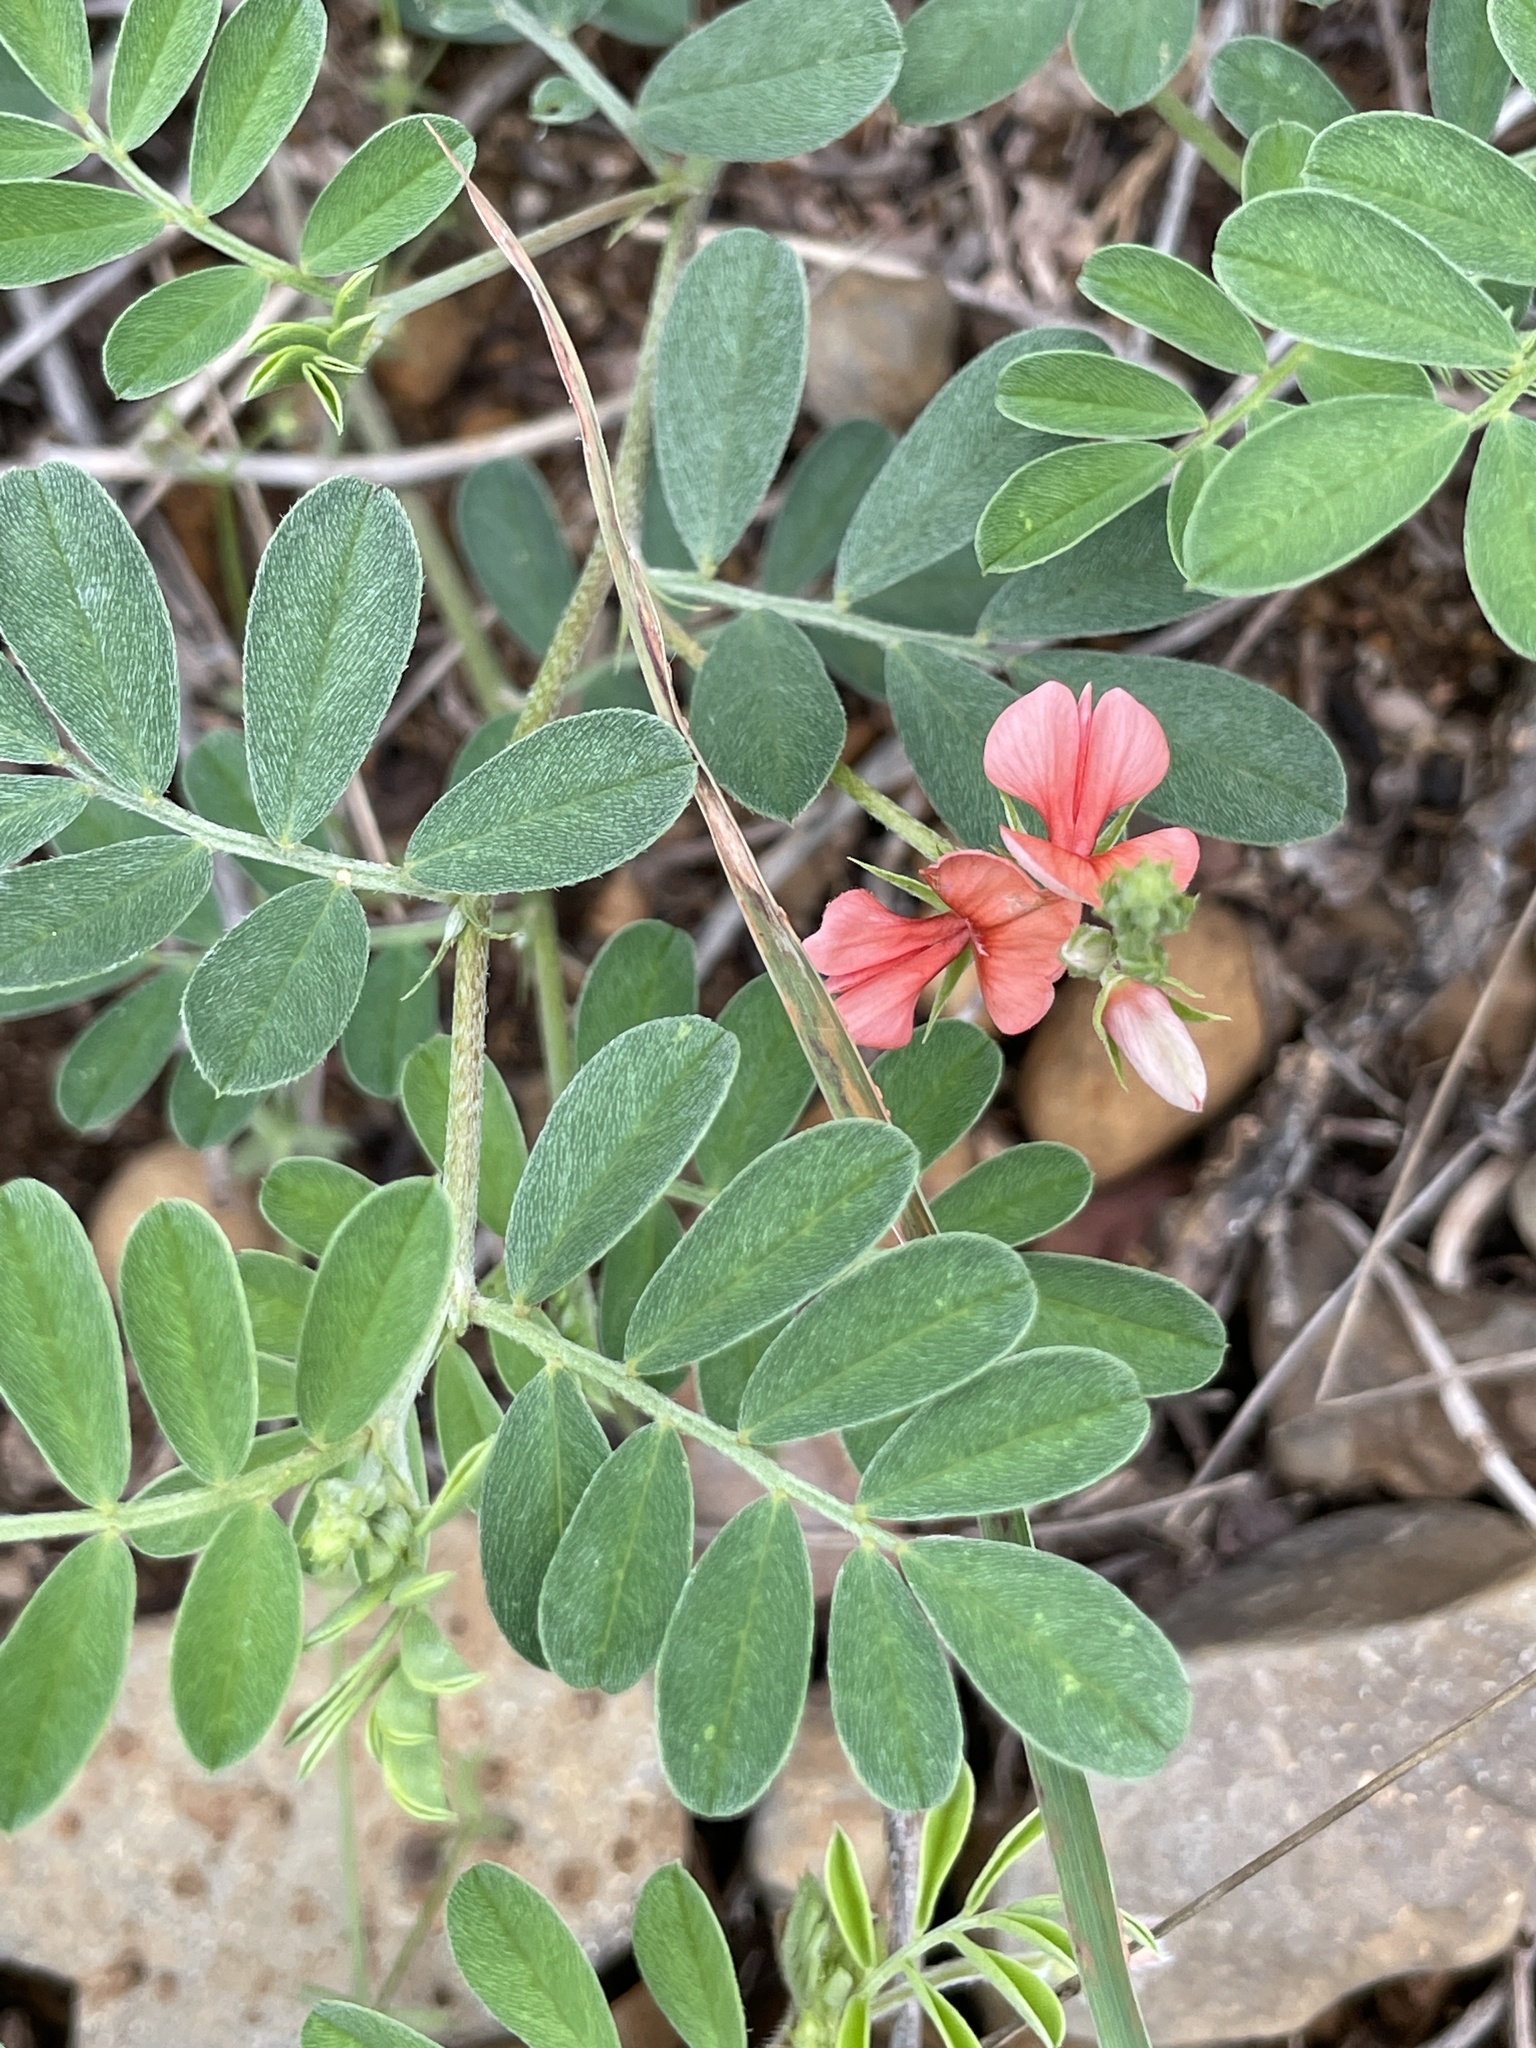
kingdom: Plantae
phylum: Tracheophyta
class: Magnoliopsida
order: Fabales
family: Fabaceae
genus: Indigofera
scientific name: Indigofera miniata
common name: Coast indigo
